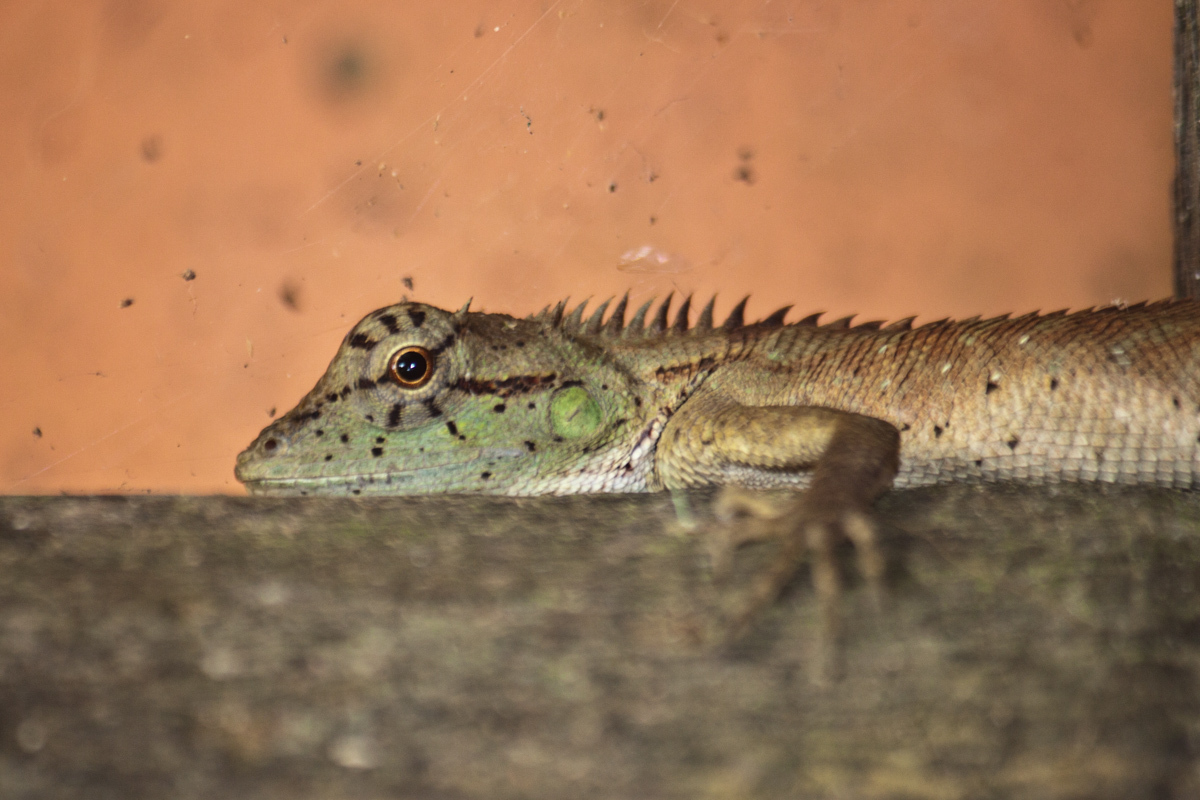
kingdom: Animalia
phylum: Chordata
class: Squamata
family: Agamidae
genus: Calotes
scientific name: Calotes emma
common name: Thailand bloodsucker
